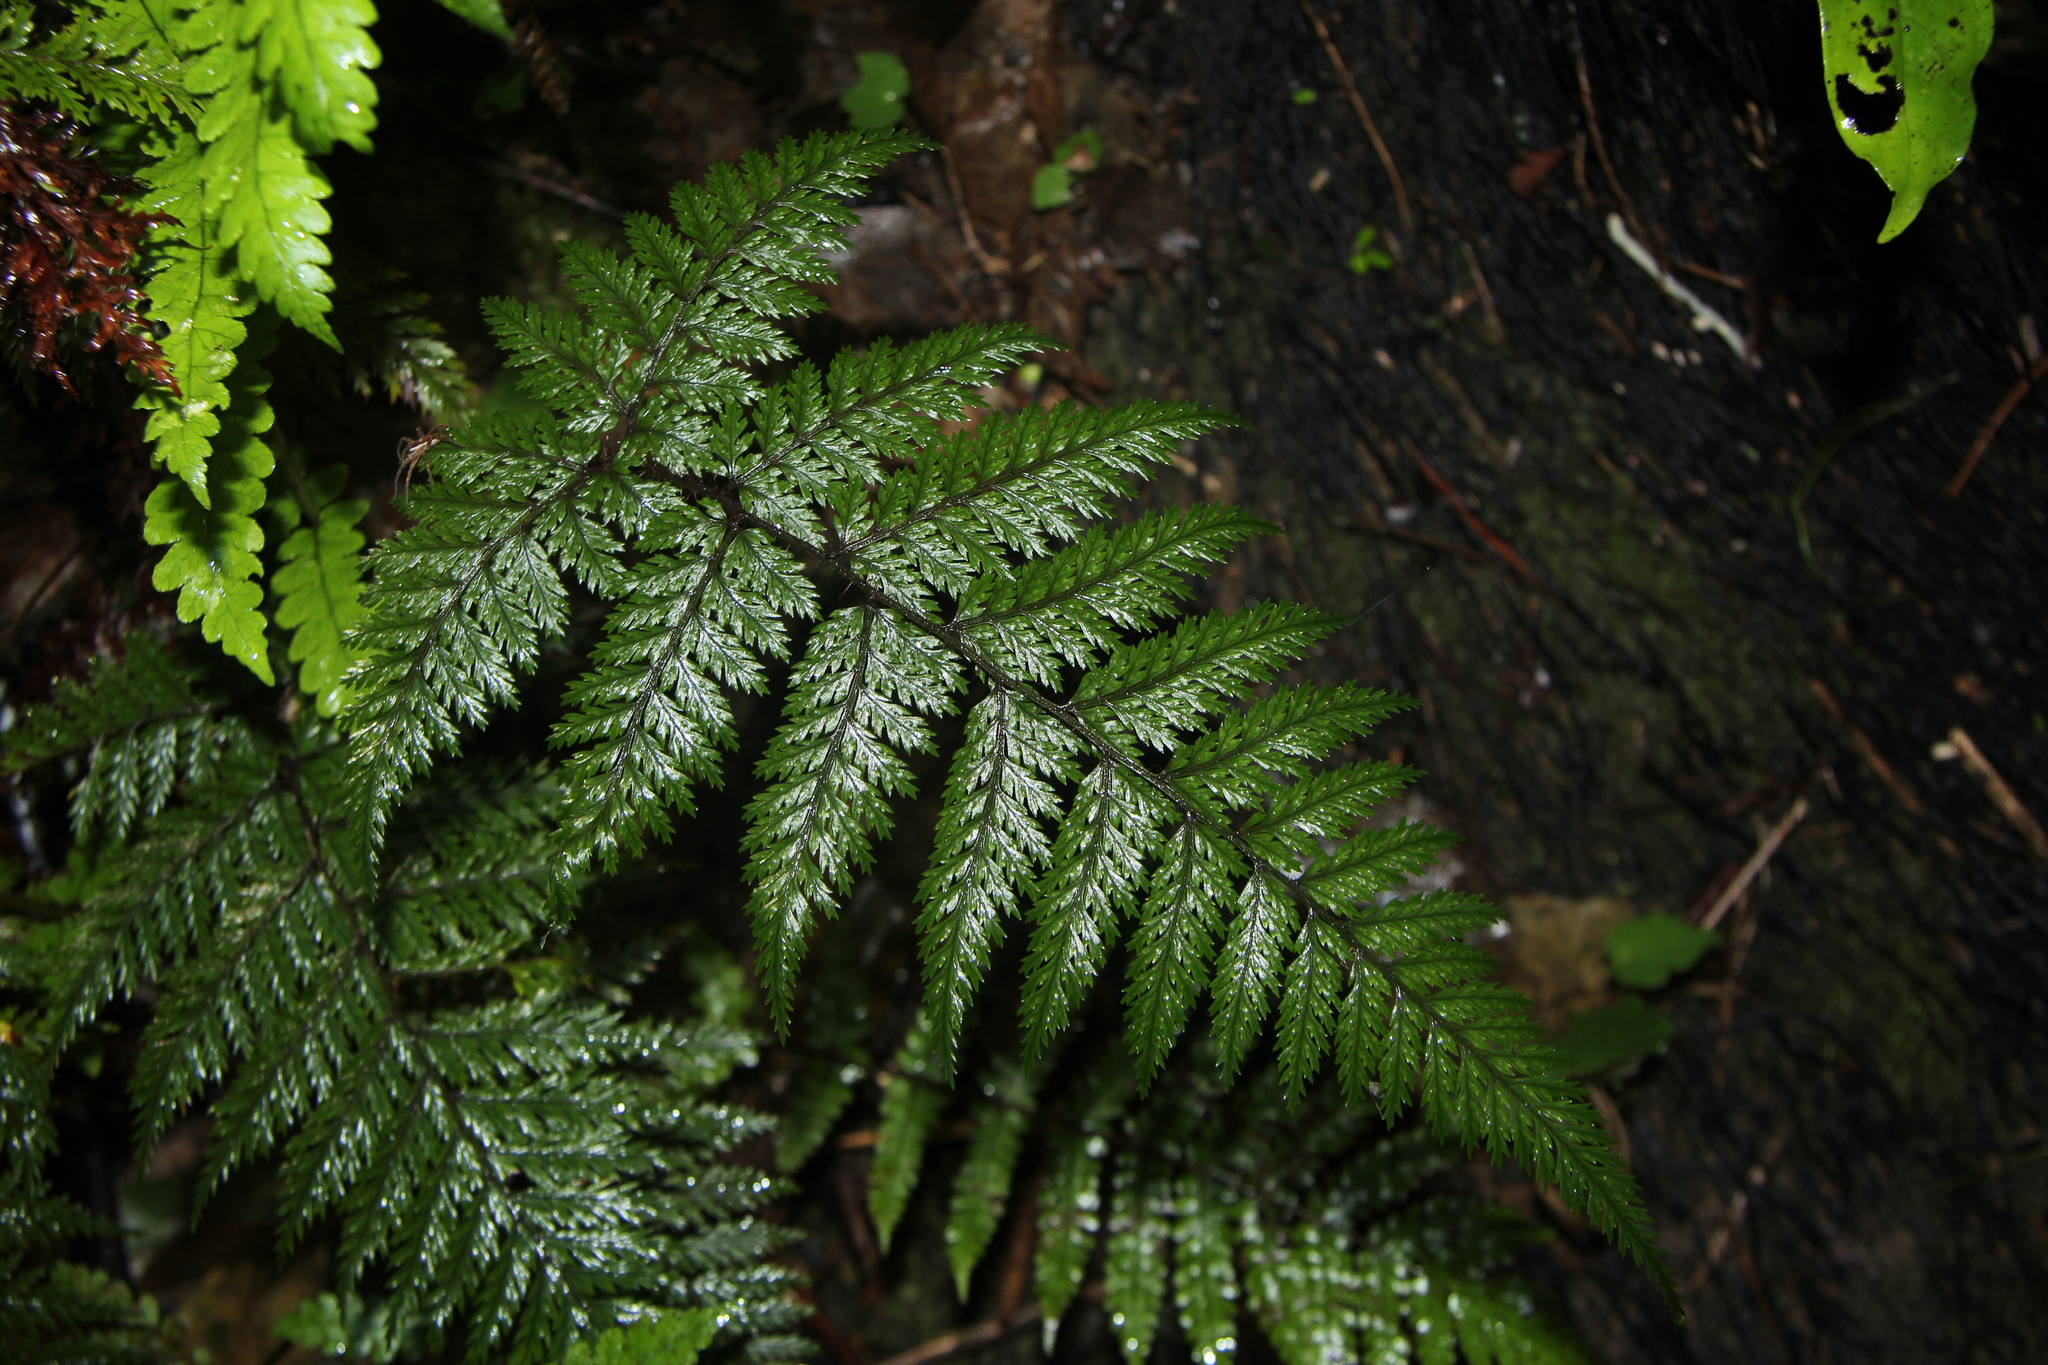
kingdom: Plantae
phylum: Tracheophyta
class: Polypodiopsida
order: Polypodiales
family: Dryopteridaceae
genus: Lastreopsis
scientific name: Lastreopsis hispida
